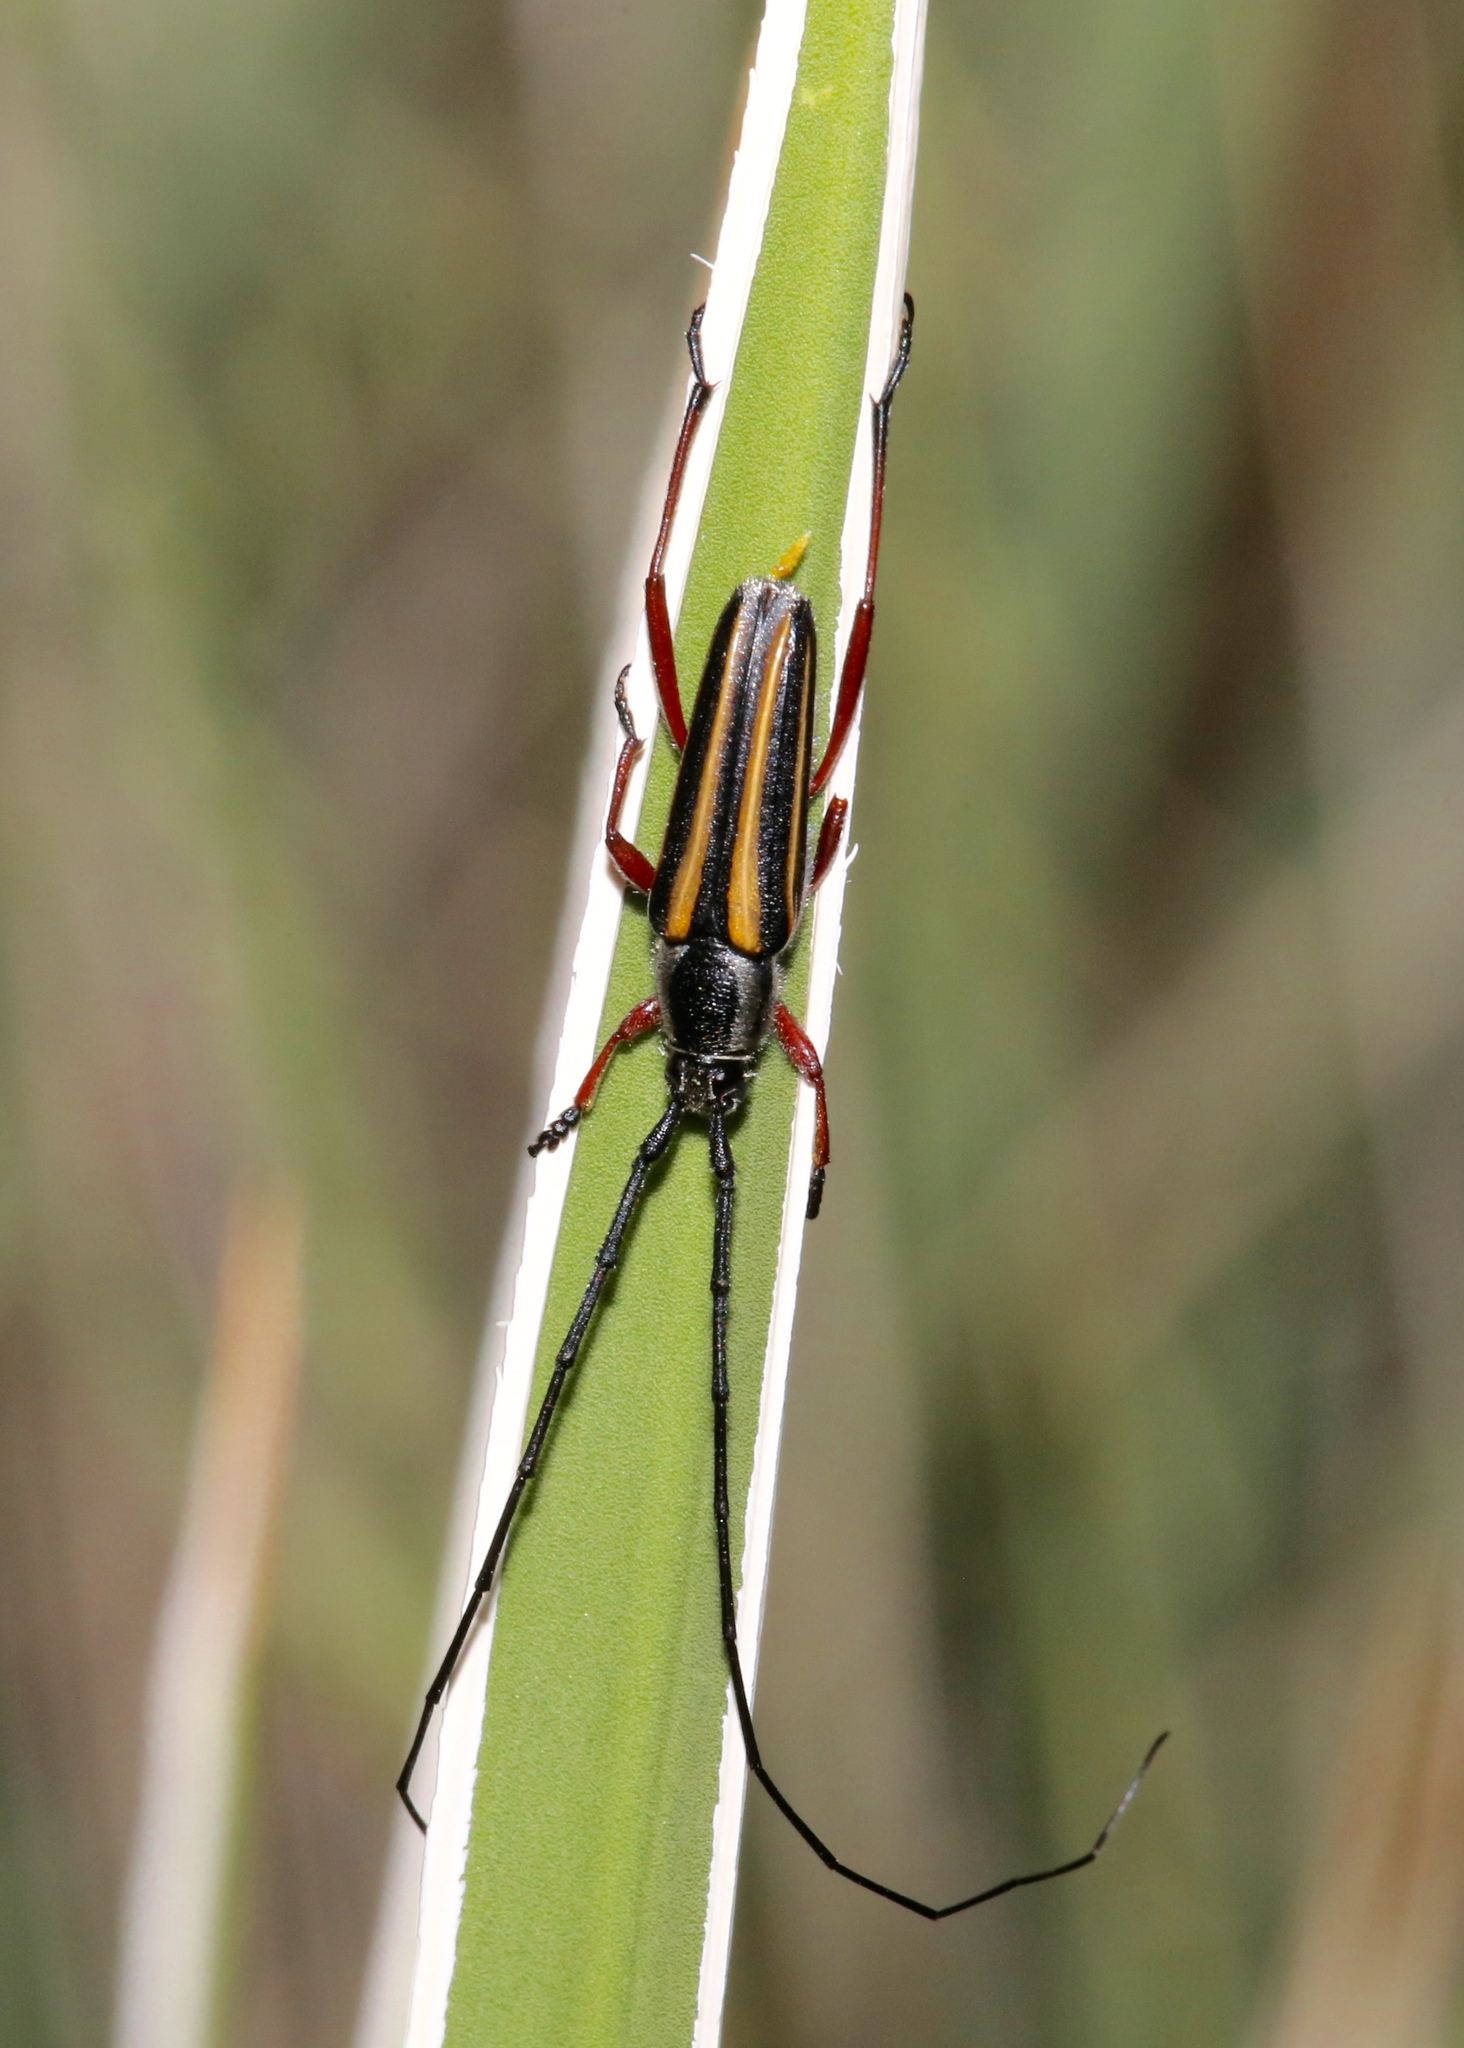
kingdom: Animalia
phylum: Arthropoda
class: Insecta
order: Coleoptera
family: Cerambycidae
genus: Sphaenothecus
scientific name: Sphaenothecus bilineatus
